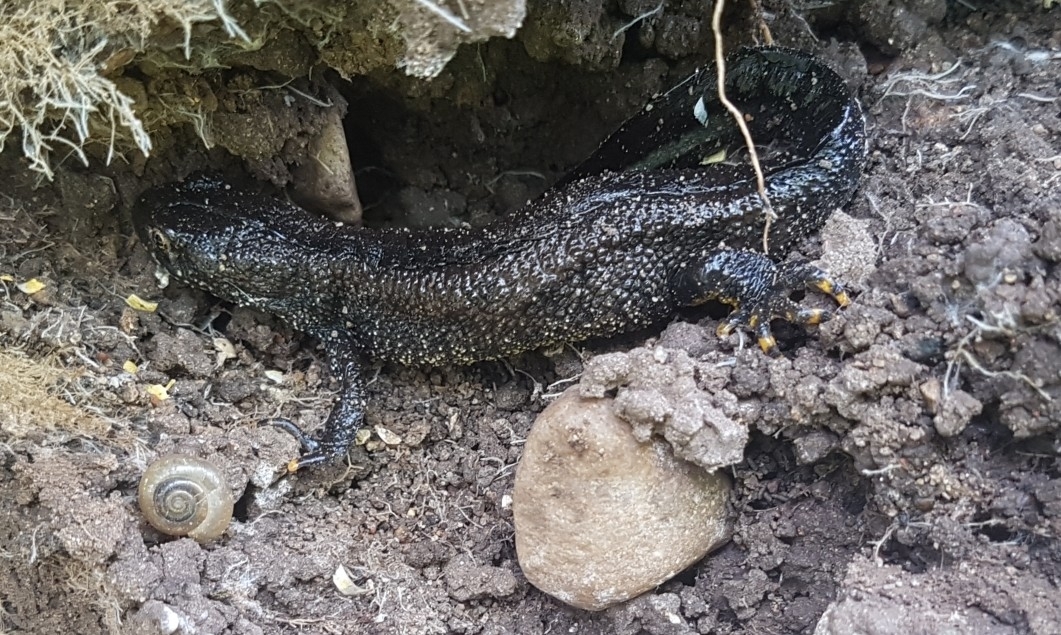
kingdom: Animalia
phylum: Chordata
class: Amphibia
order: Caudata
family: Salamandridae
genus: Triturus
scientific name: Triturus cristatus
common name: Crested newt
